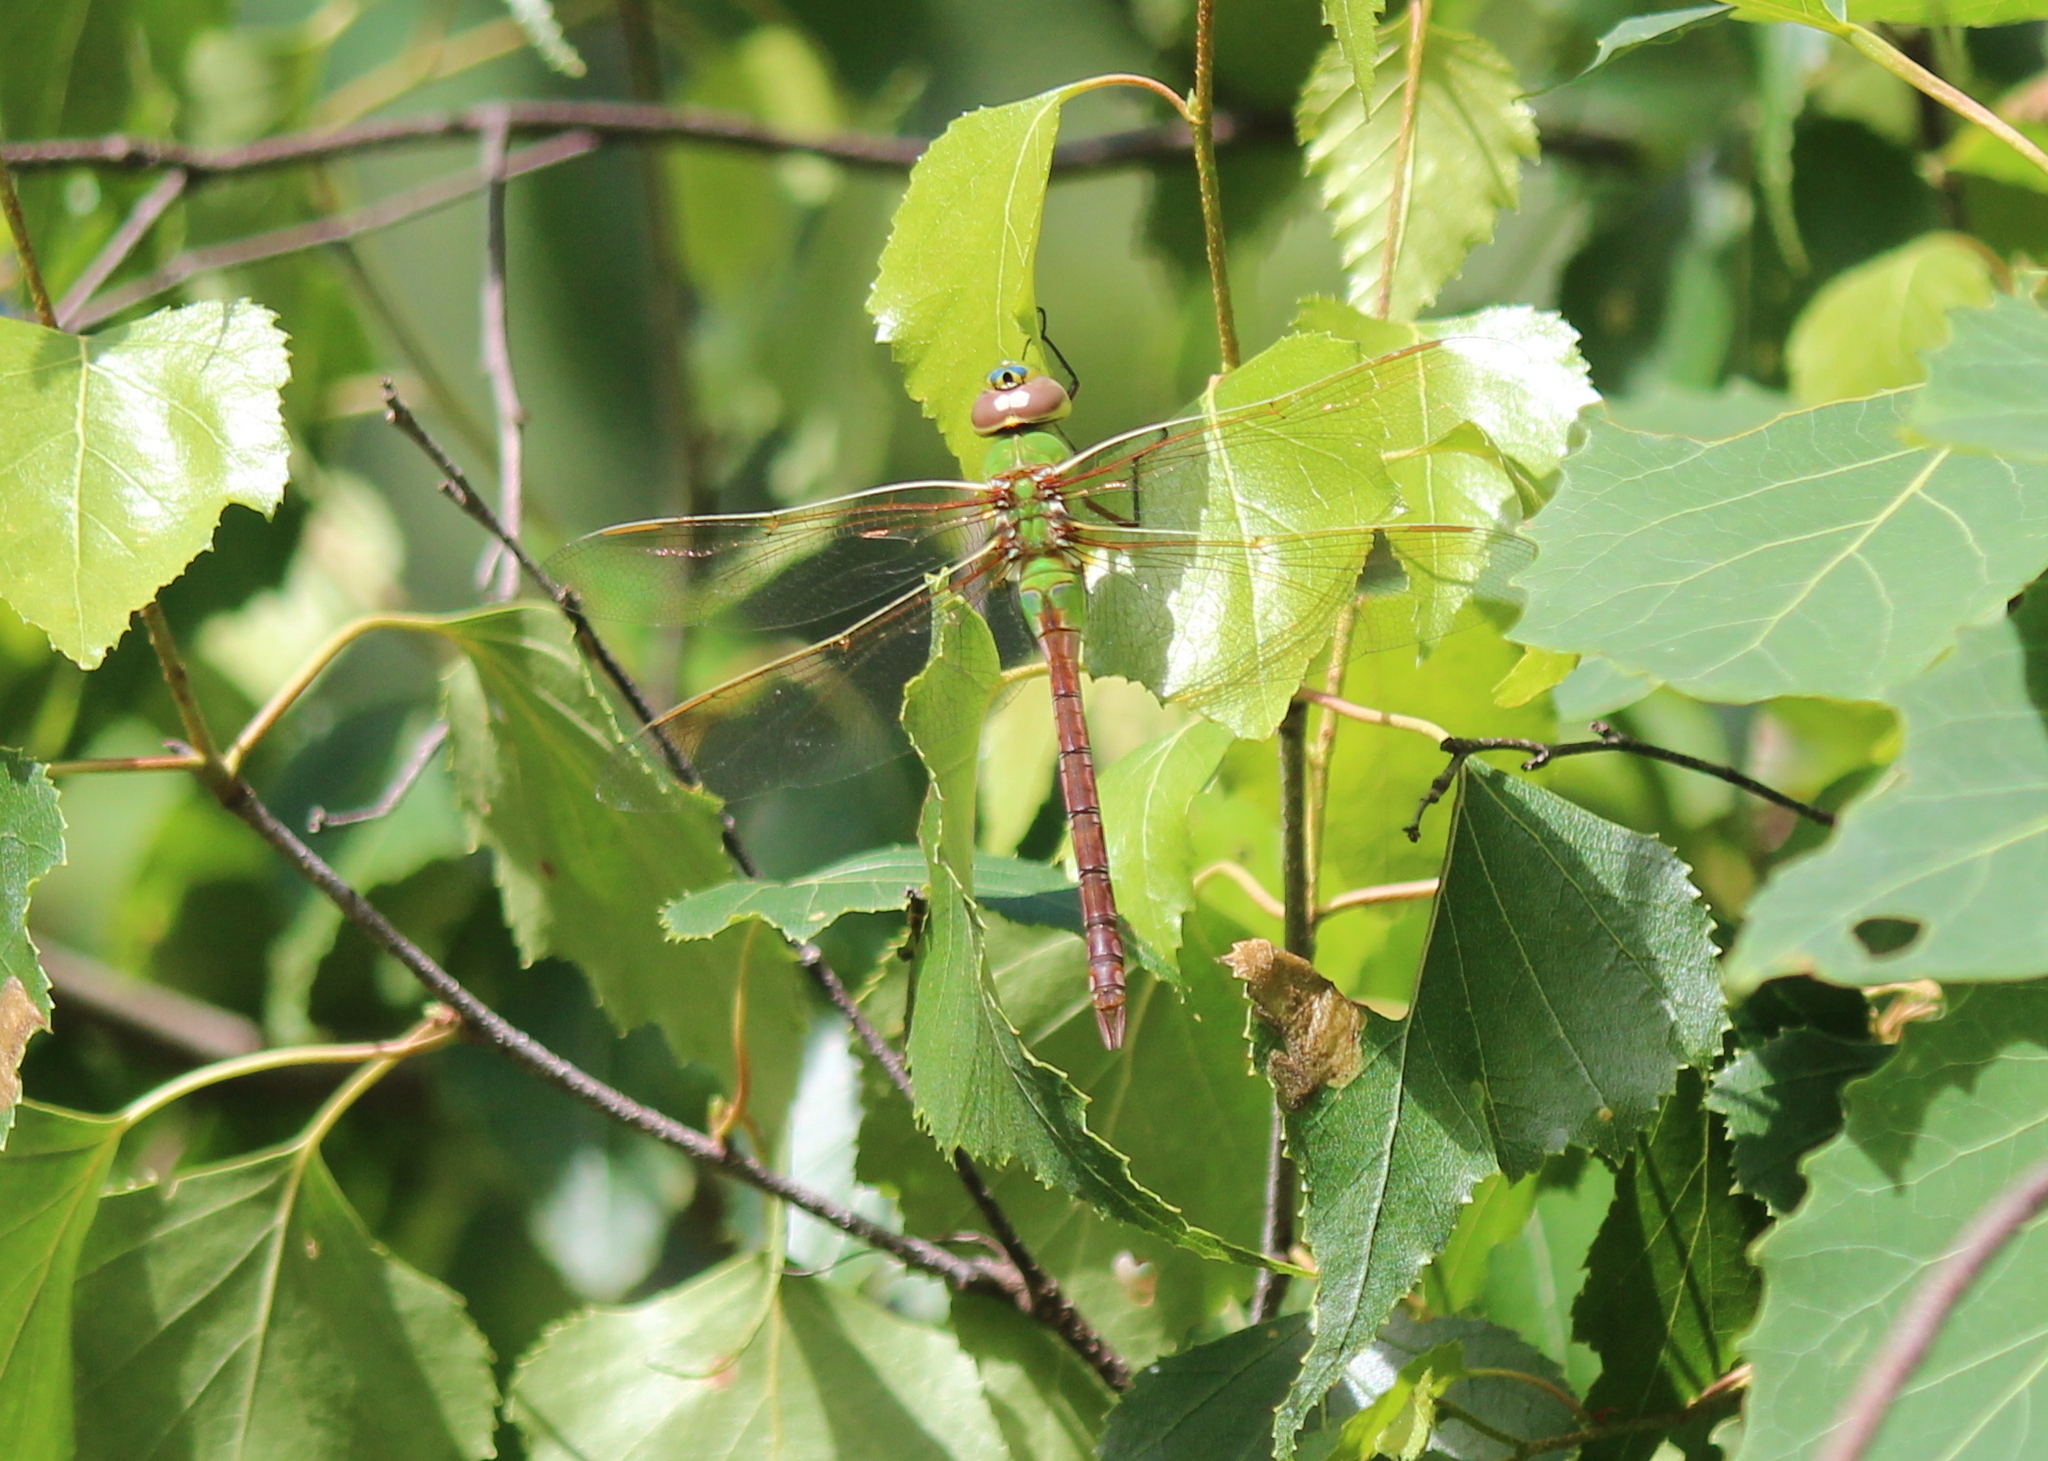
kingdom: Animalia
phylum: Arthropoda
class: Insecta
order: Odonata
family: Aeshnidae
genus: Anax
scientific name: Anax junius
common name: Common green darner
